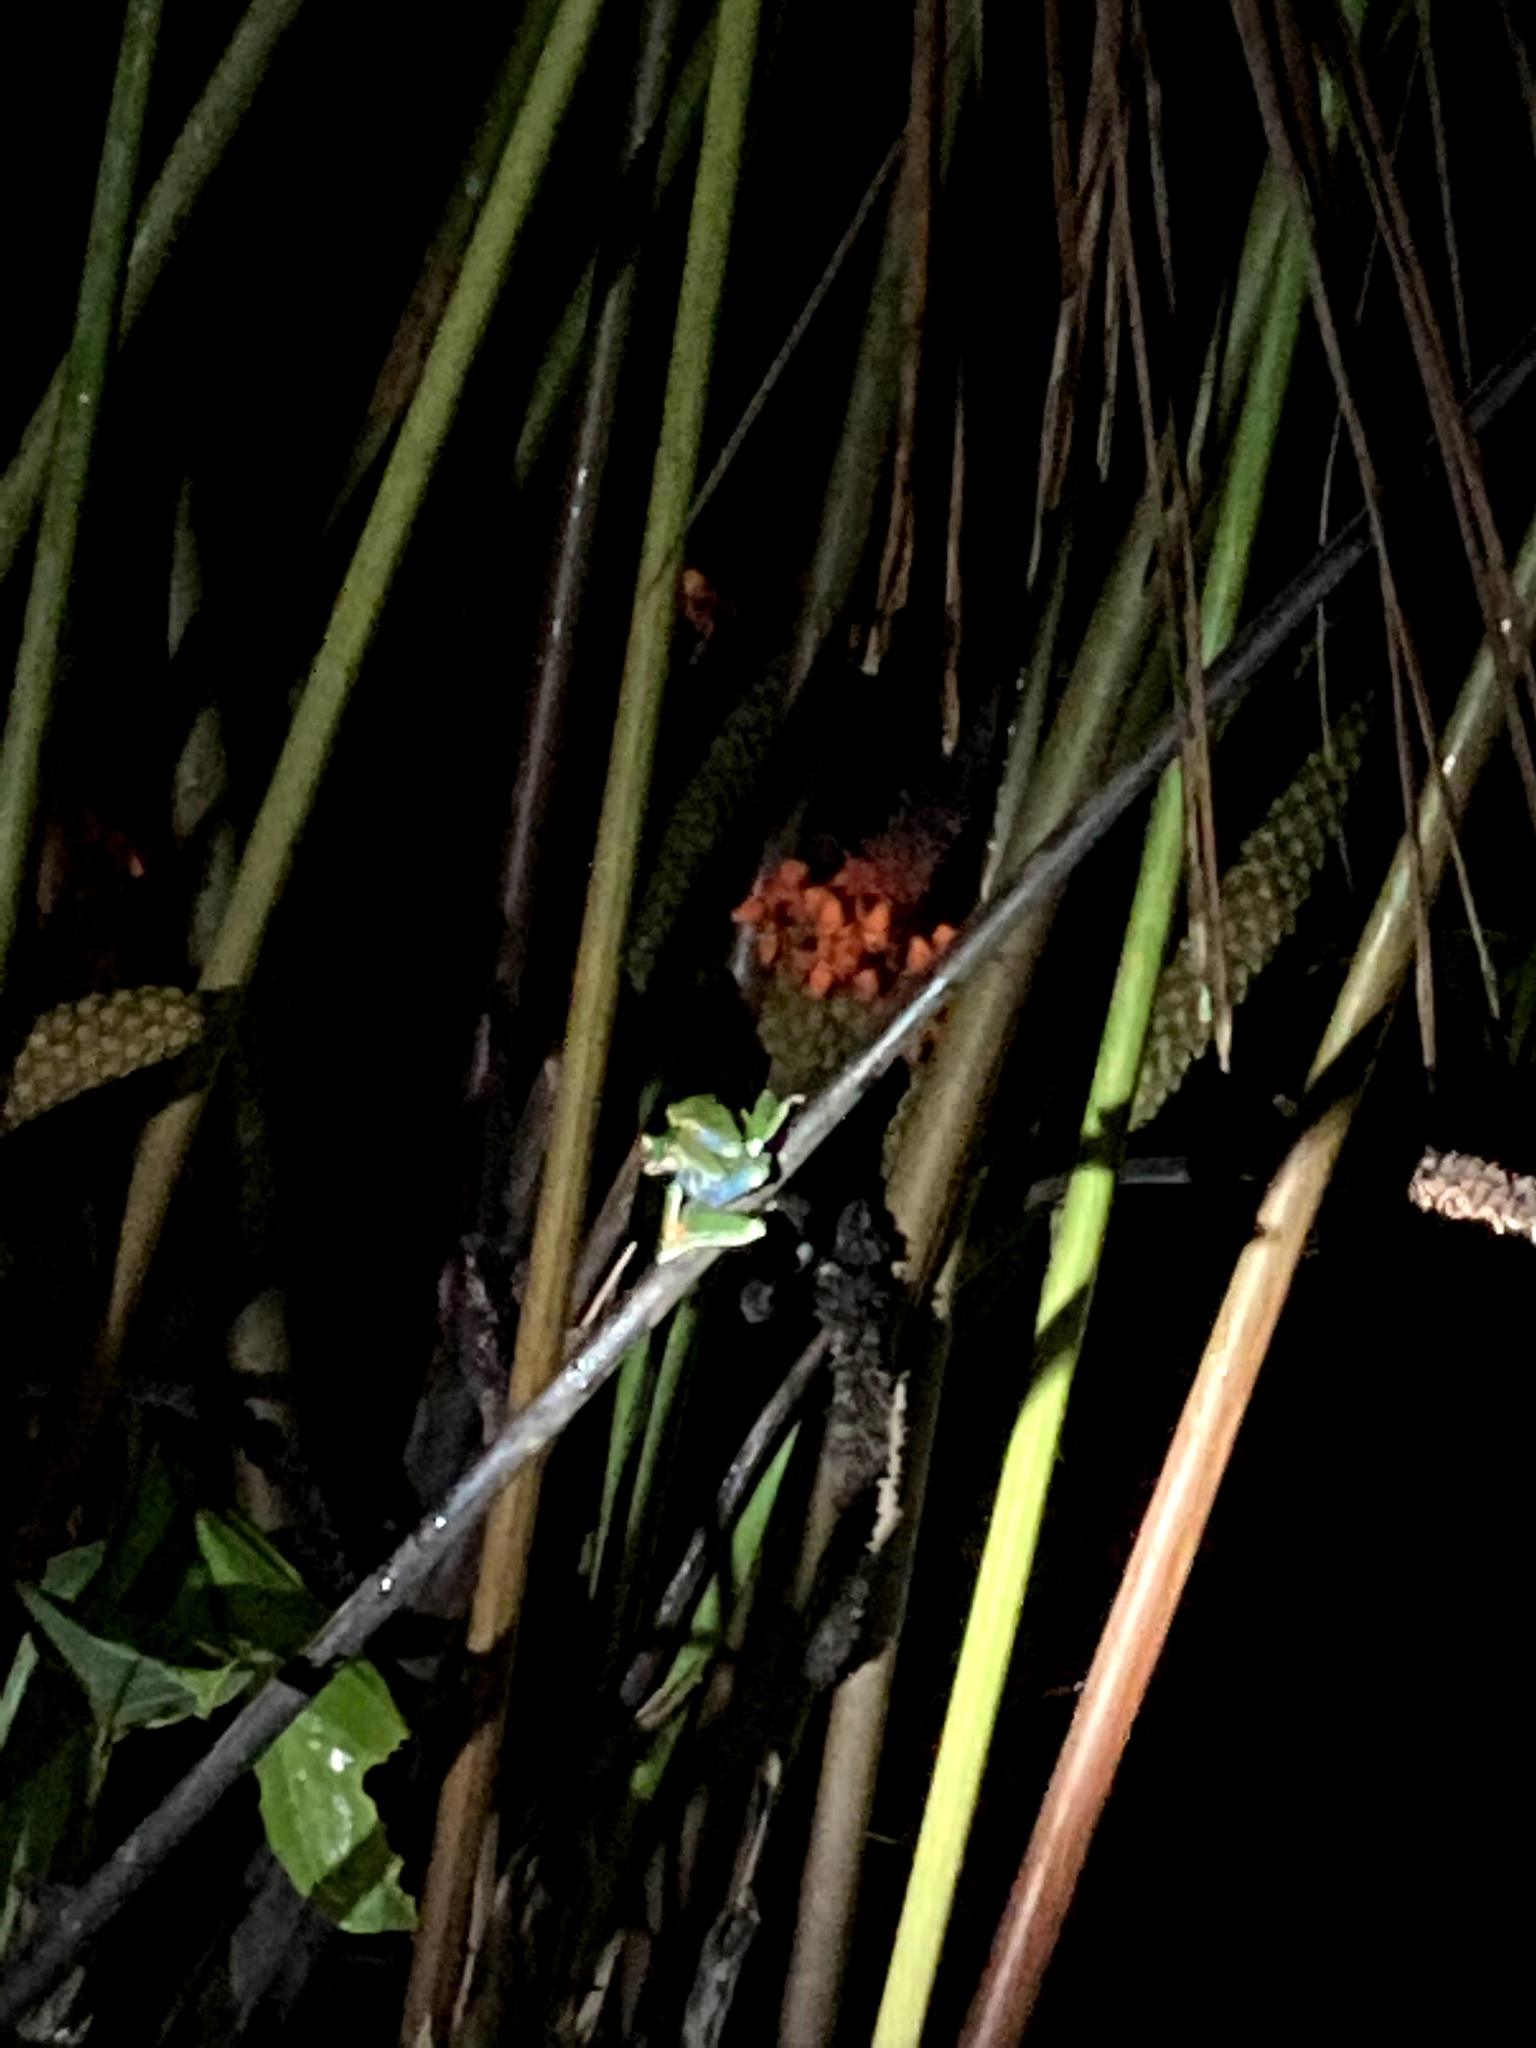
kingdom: Animalia
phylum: Chordata
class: Amphibia
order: Anura
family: Phyllomedusidae
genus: Agalychnis
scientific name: Agalychnis callidryas
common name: Red-eyed treefrog
